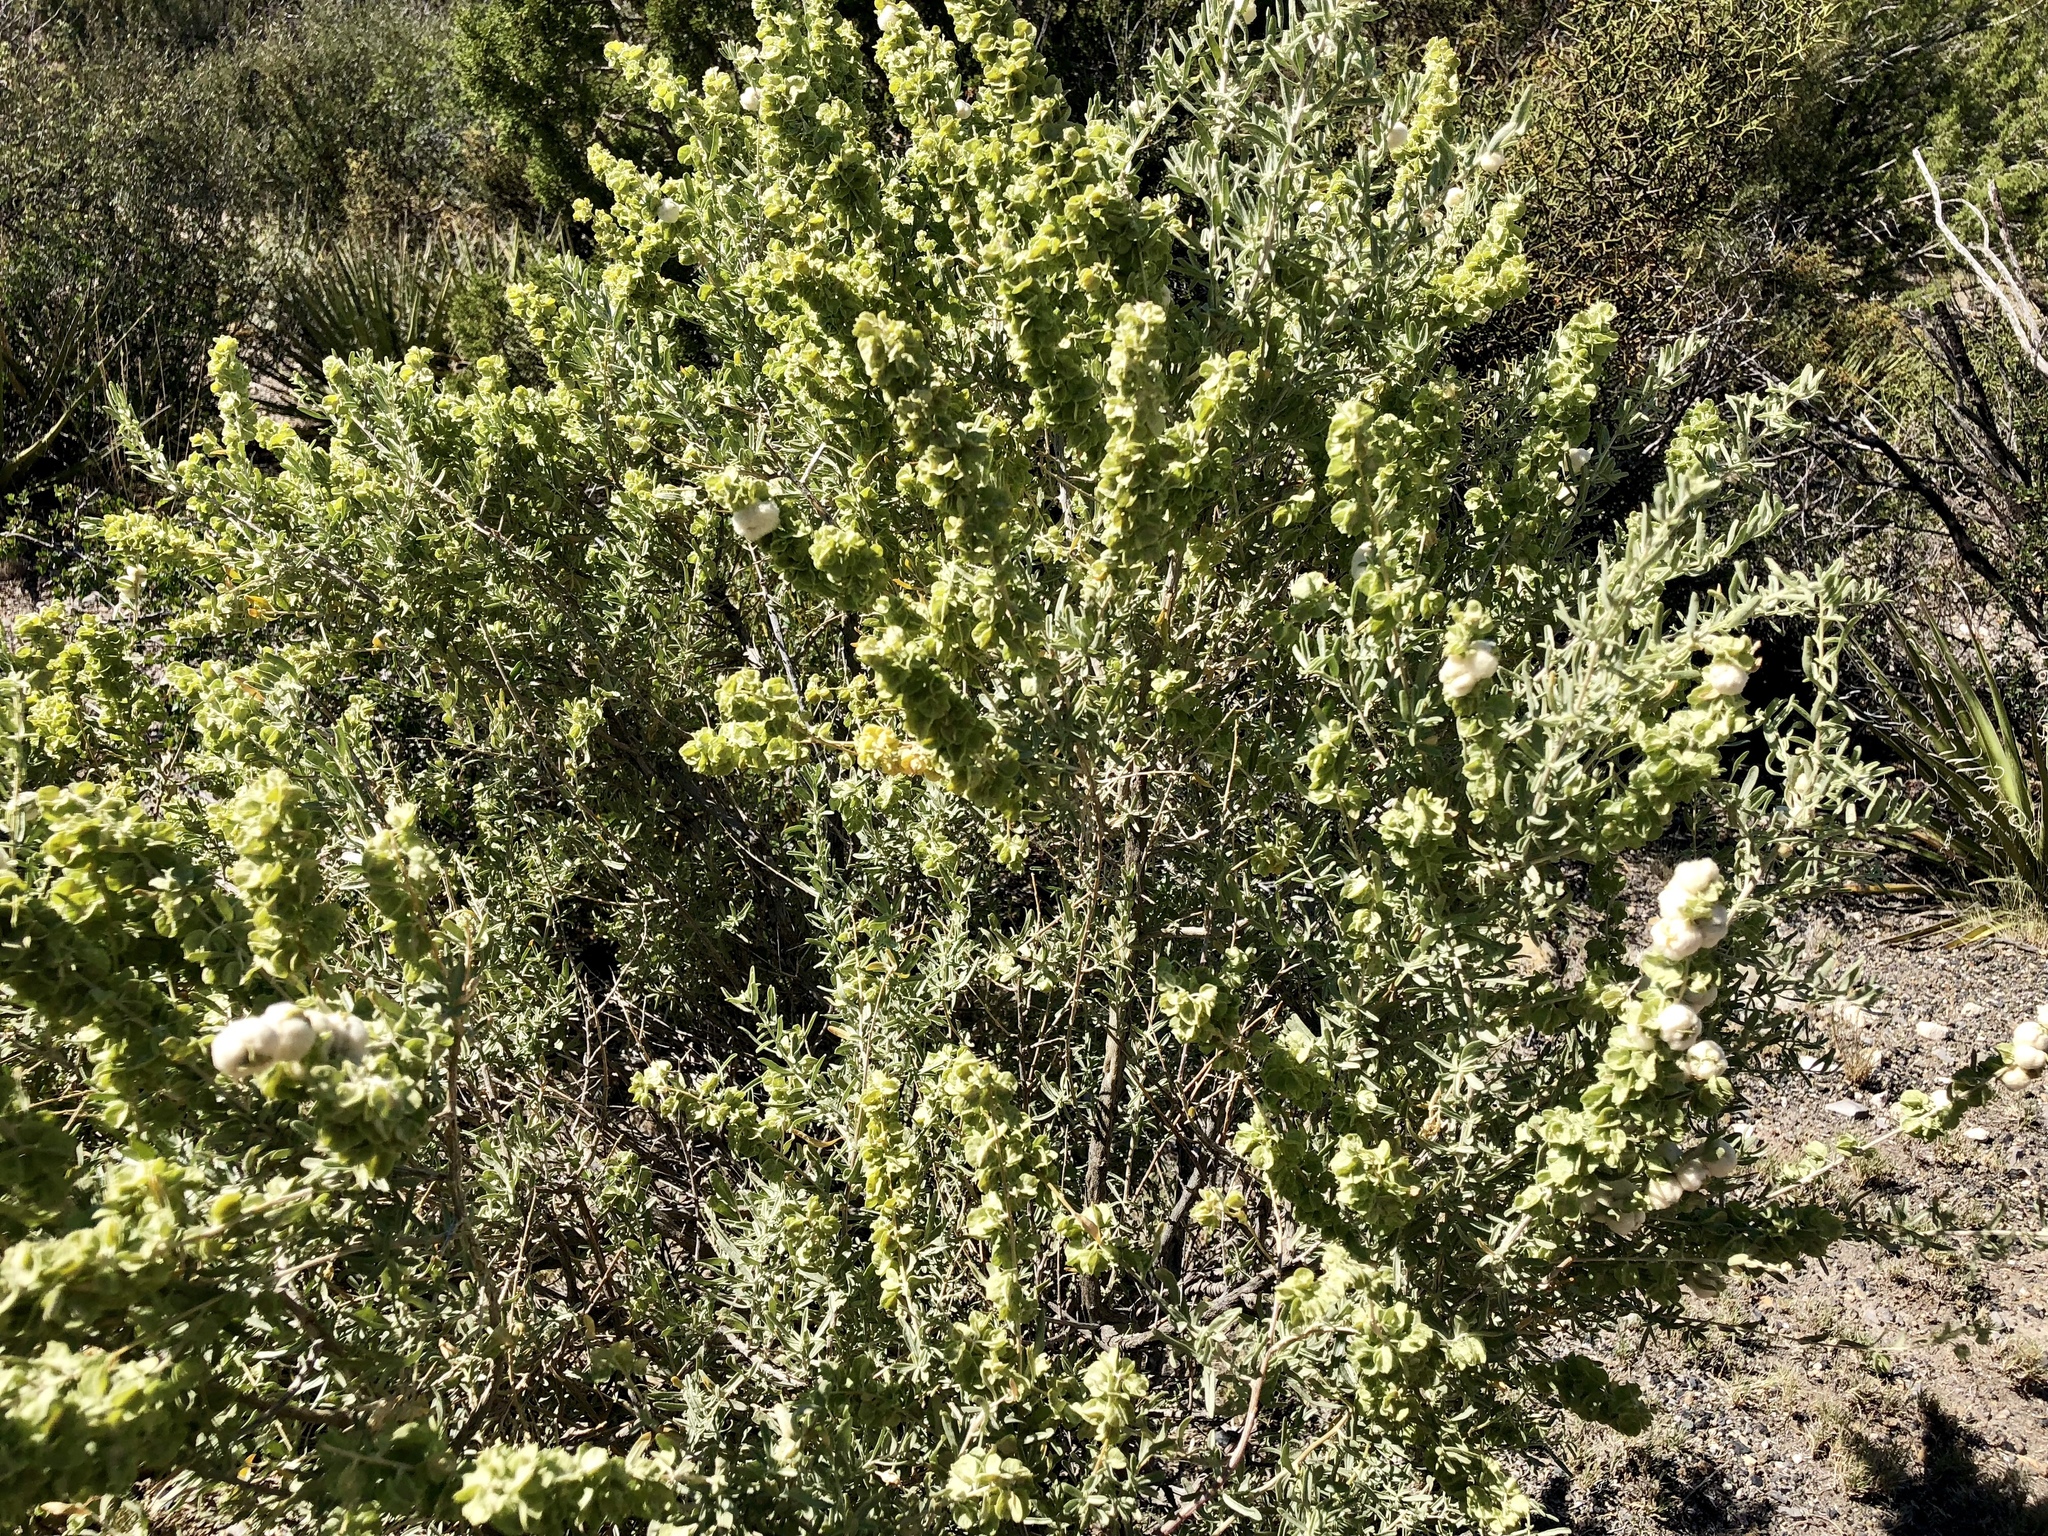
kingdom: Plantae
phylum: Tracheophyta
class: Magnoliopsida
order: Caryophyllales
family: Amaranthaceae
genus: Atriplex
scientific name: Atriplex canescens
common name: Four-wing saltbush
